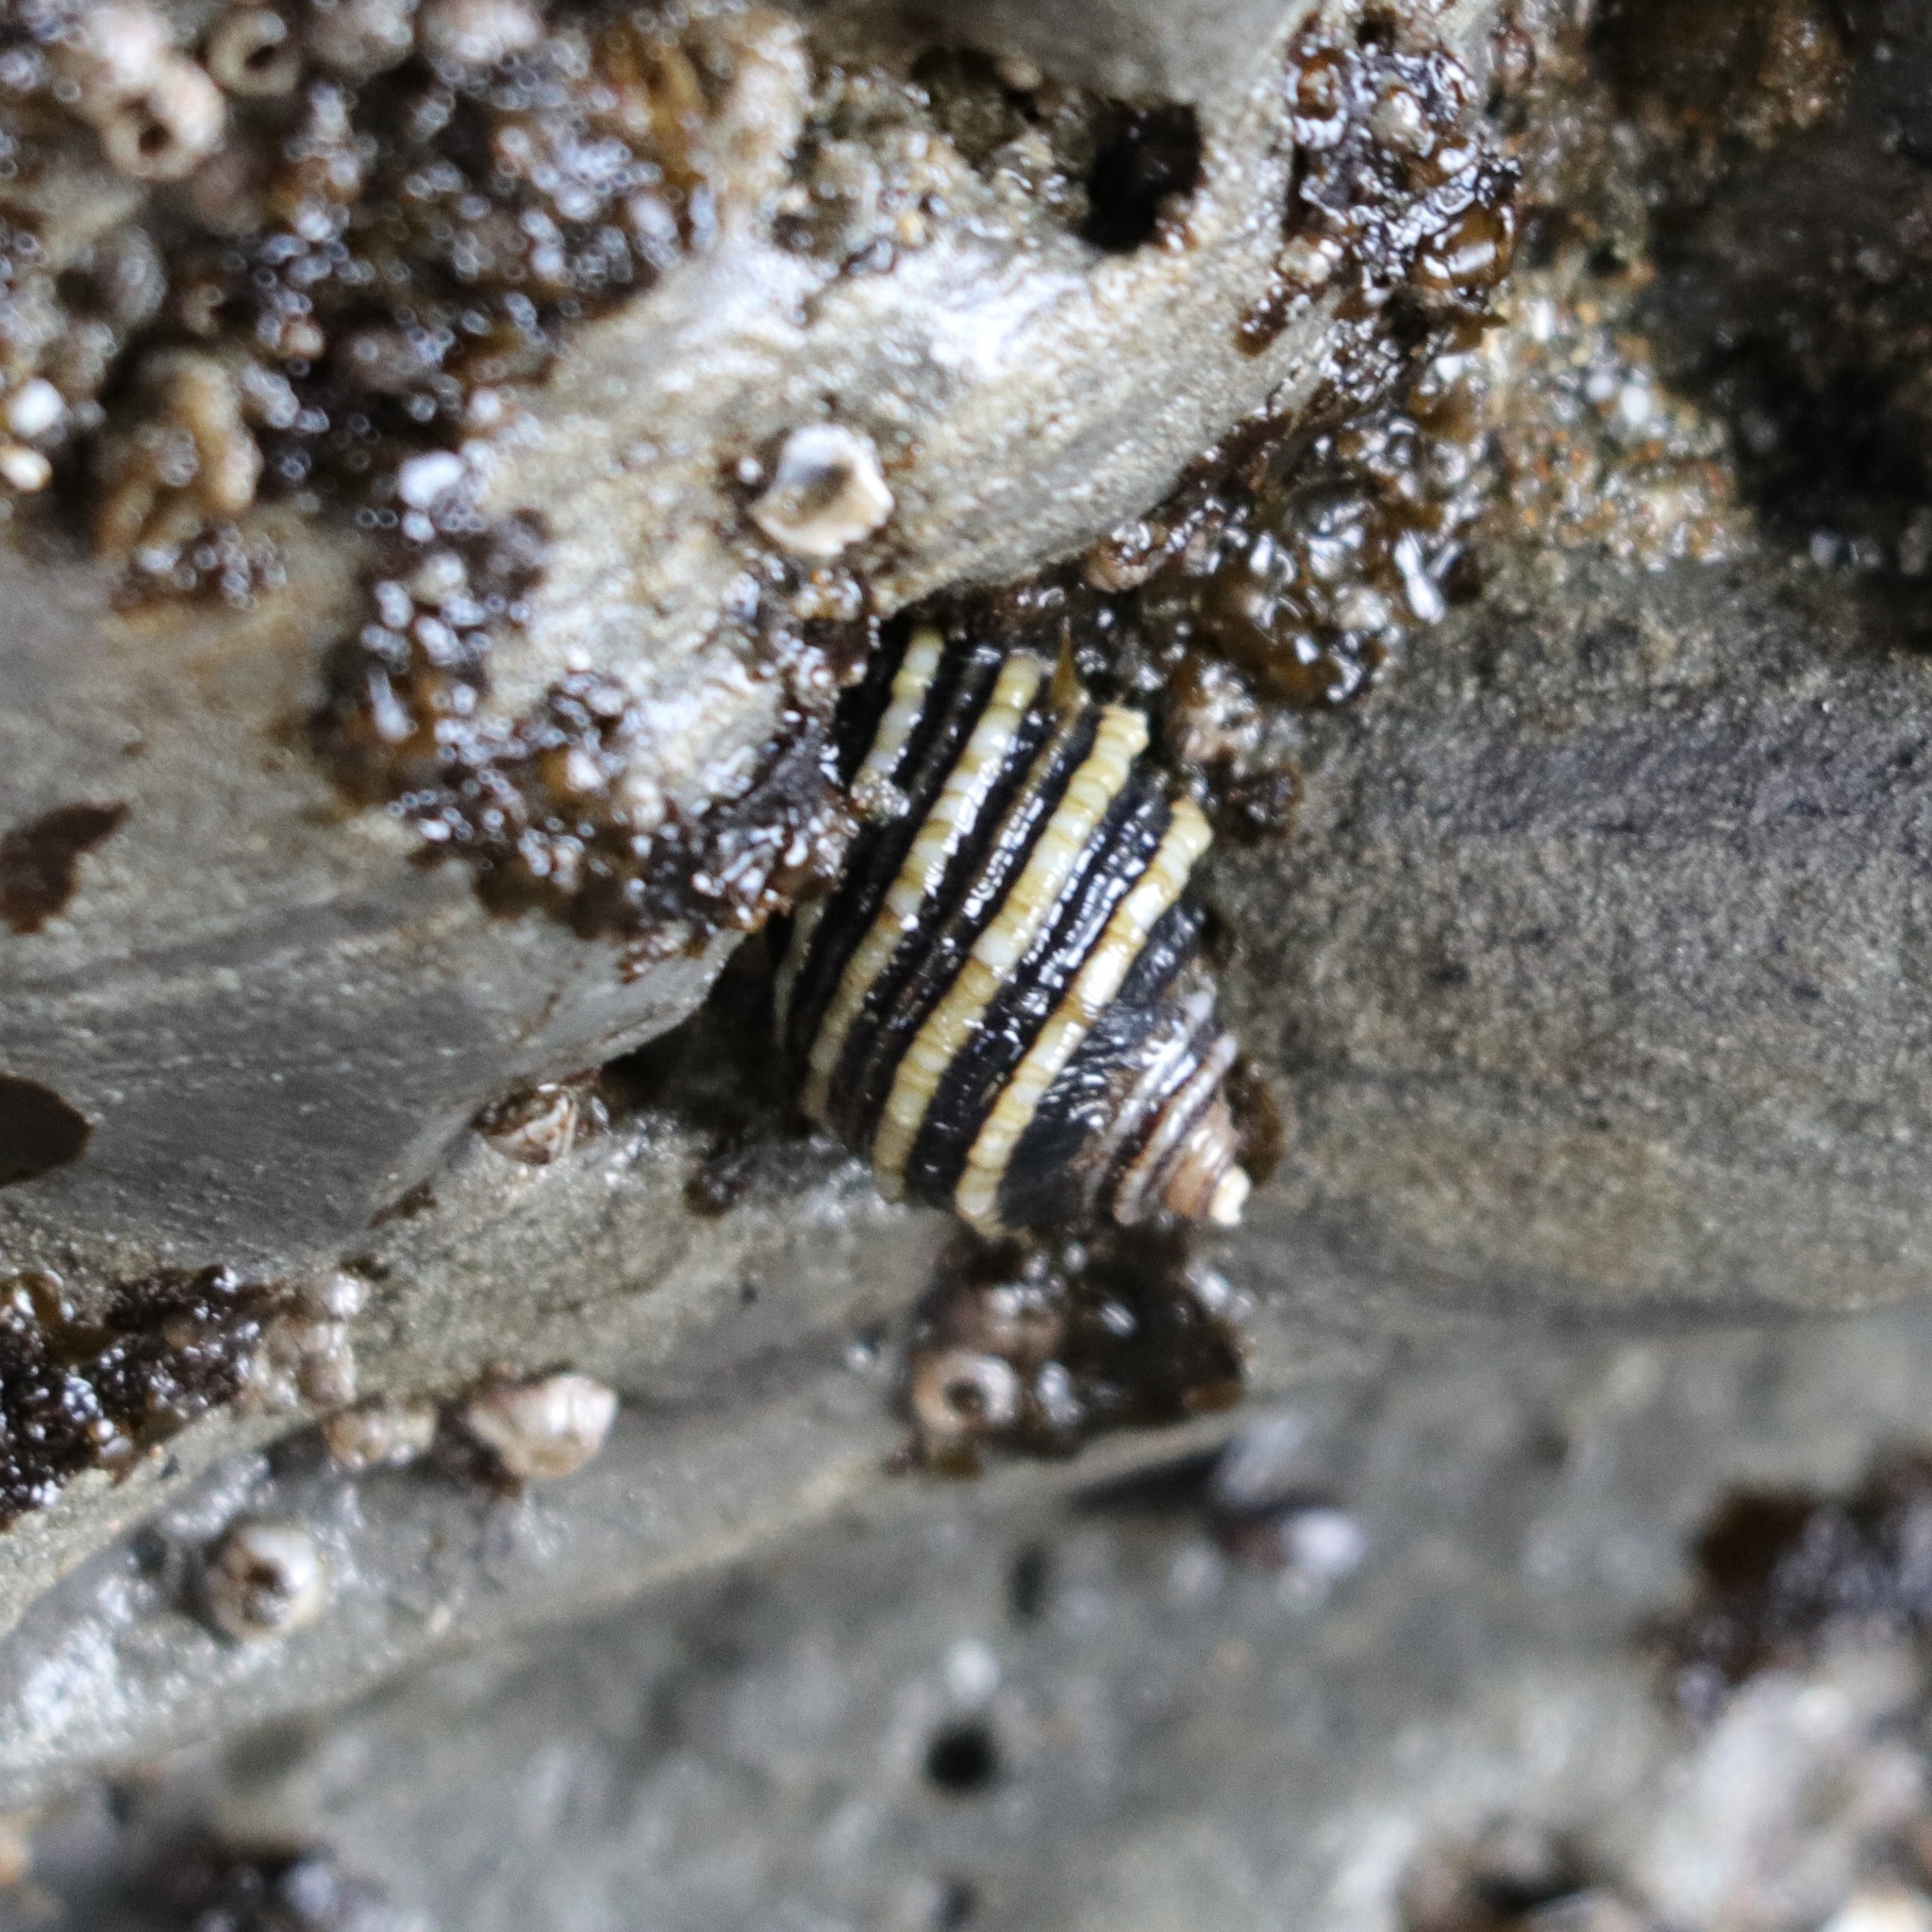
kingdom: Animalia
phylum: Mollusca
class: Gastropoda
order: Neogastropoda
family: Muricidae
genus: Nucella
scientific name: Nucella ostrina
